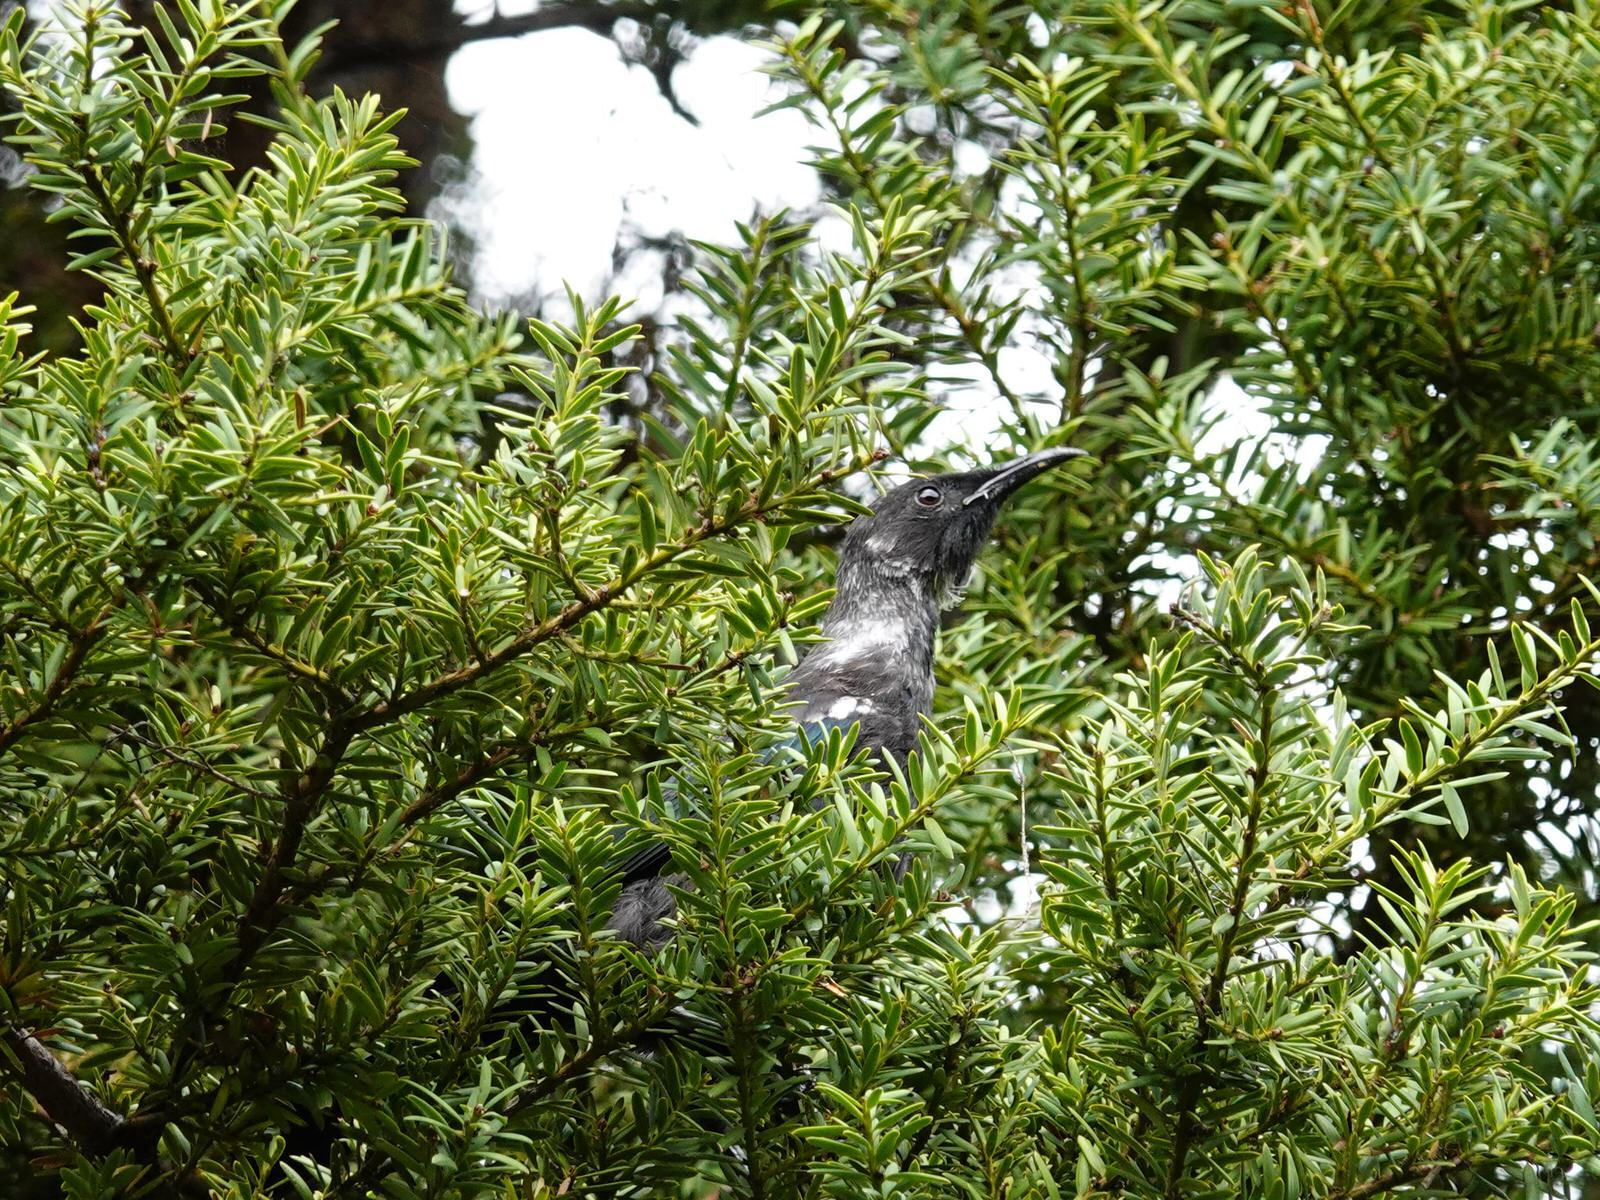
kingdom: Animalia
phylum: Chordata
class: Aves
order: Passeriformes
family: Meliphagidae
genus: Prosthemadera
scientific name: Prosthemadera novaeseelandiae
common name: Tui
